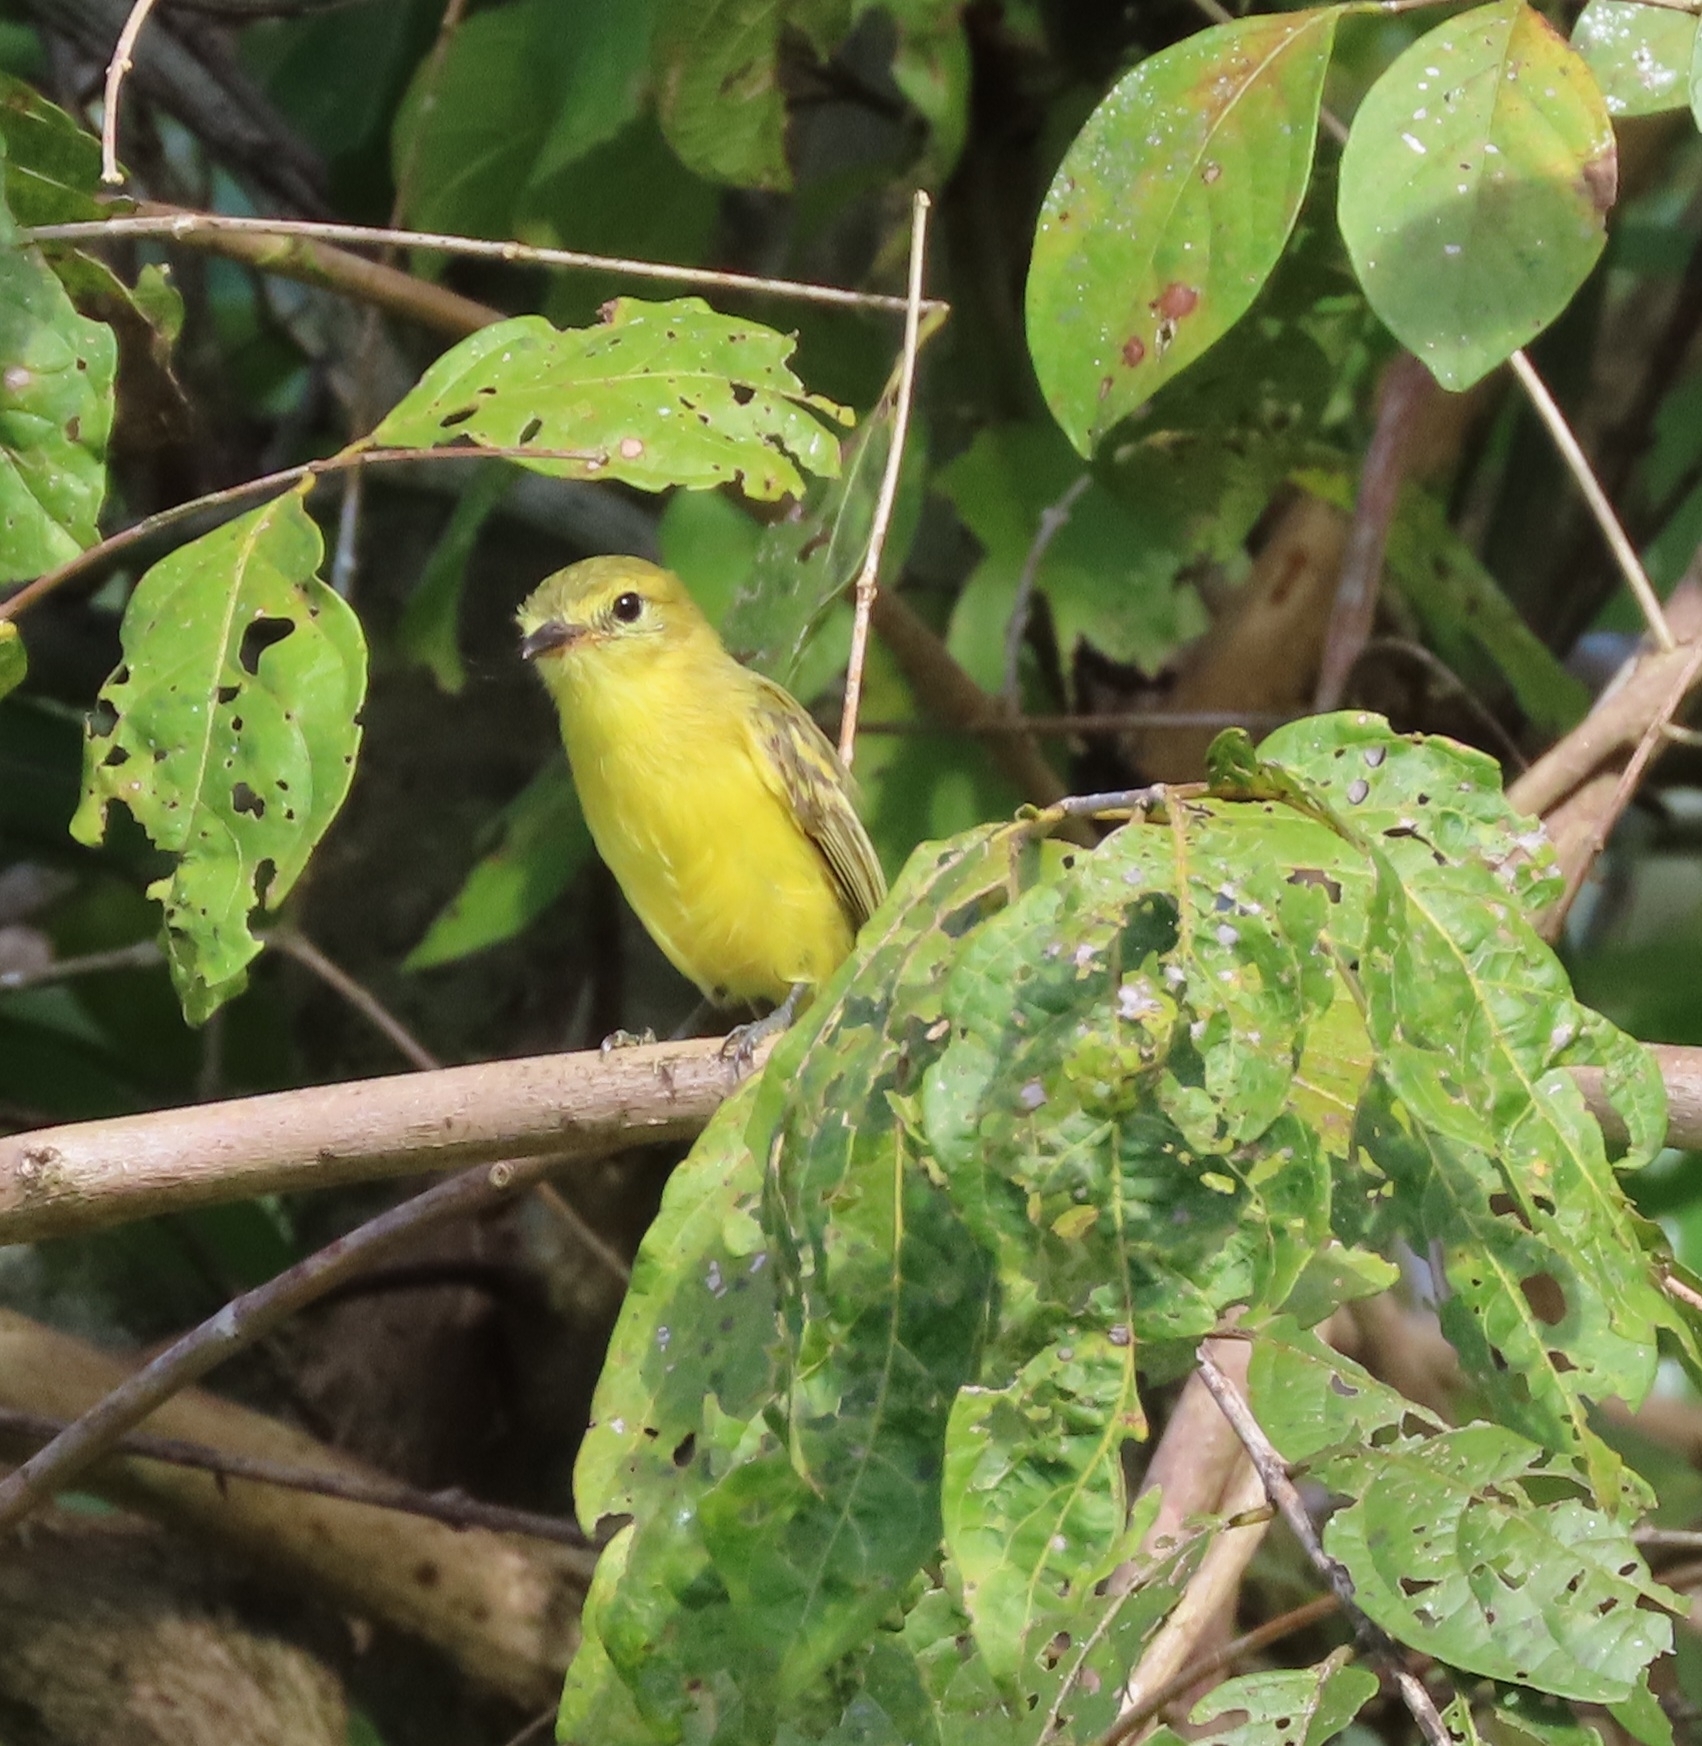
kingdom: Animalia
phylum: Chordata
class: Aves
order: Passeriformes
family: Tyrannidae
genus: Capsiempis
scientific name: Capsiempis flaveola
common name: Yellow tyrannulet
